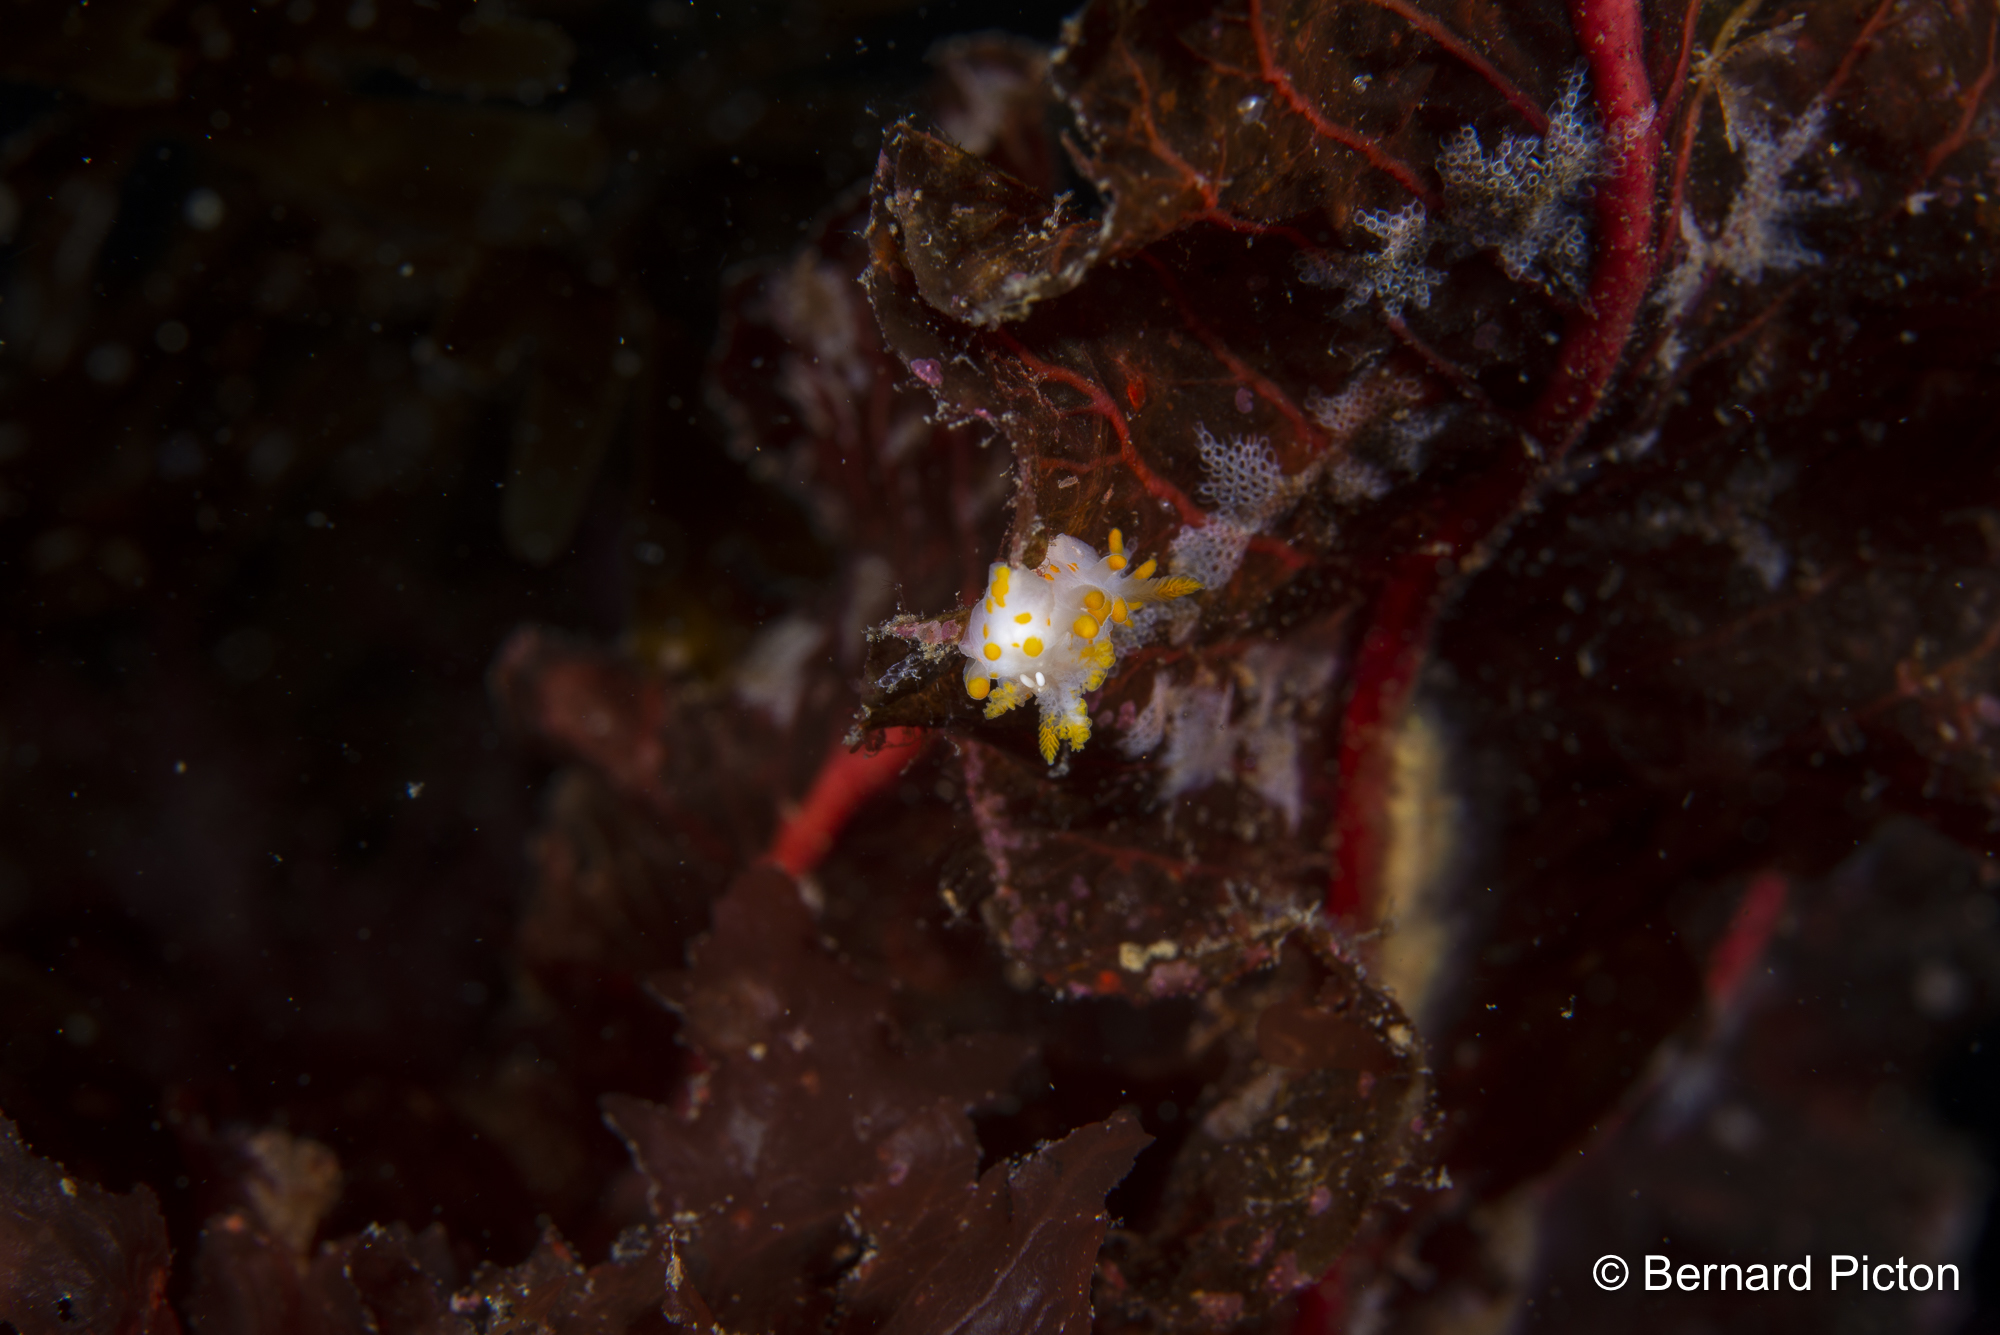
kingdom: Animalia
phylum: Mollusca
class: Gastropoda
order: Nudibranchia
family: Polyceridae
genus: Limacia
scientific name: Limacia clavigera
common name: Orange-clubbed sea slug
